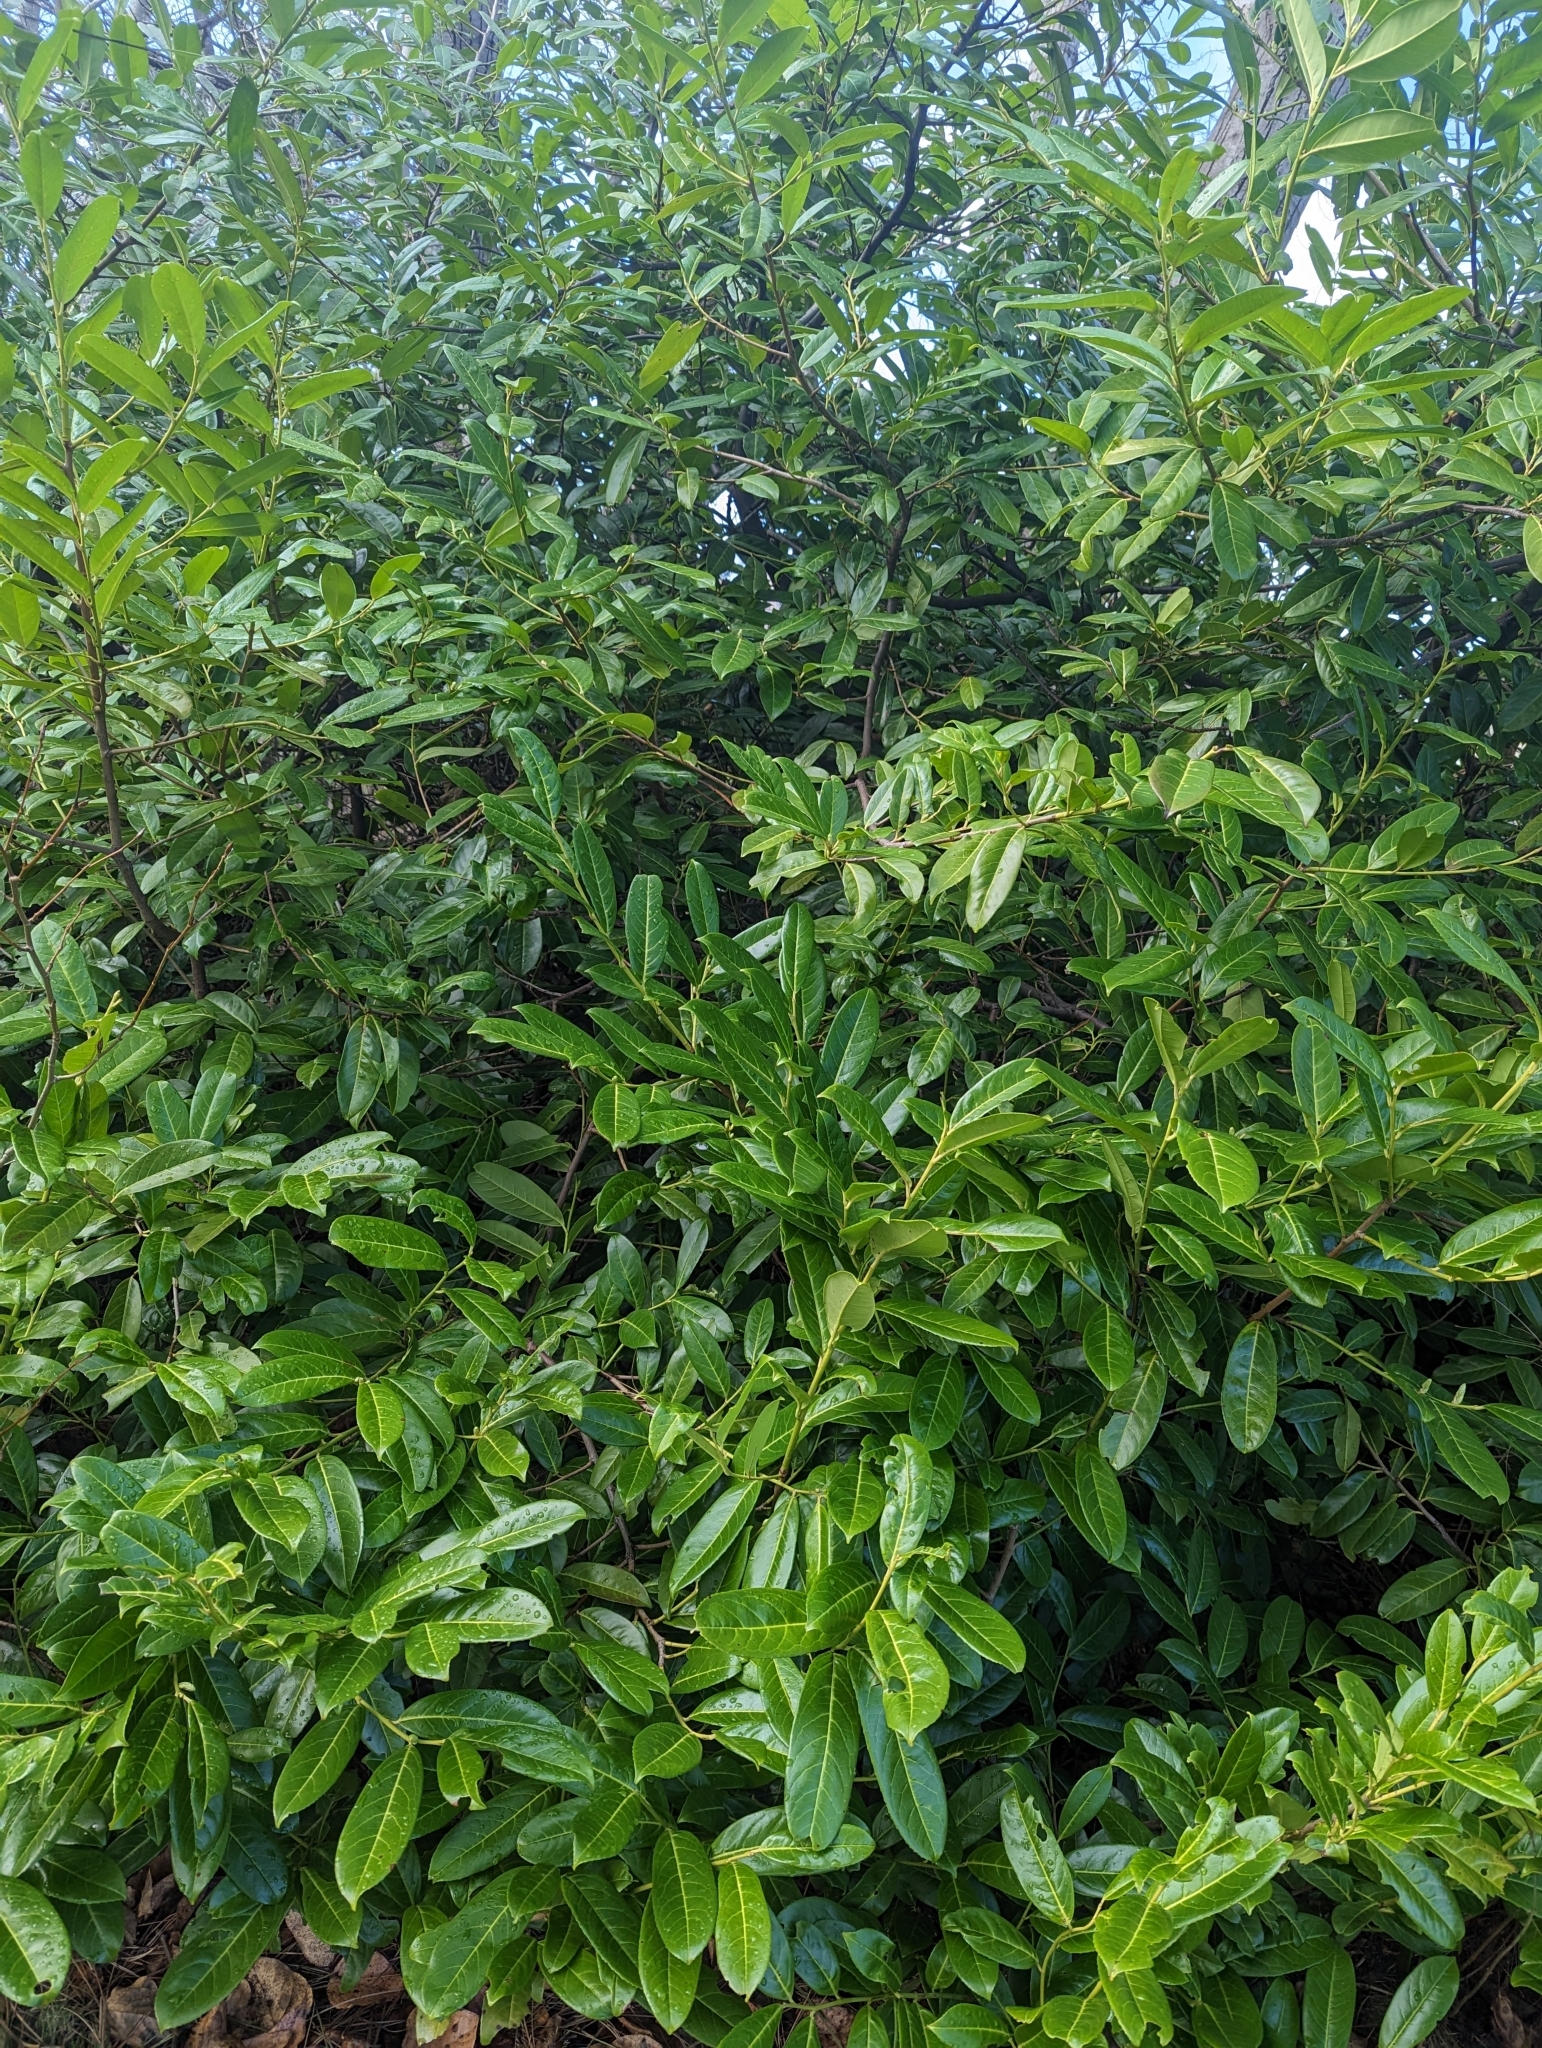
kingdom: Plantae
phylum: Tracheophyta
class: Magnoliopsida
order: Rosales
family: Rosaceae
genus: Prunus
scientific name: Prunus laurocerasus
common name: Cherry laurel
